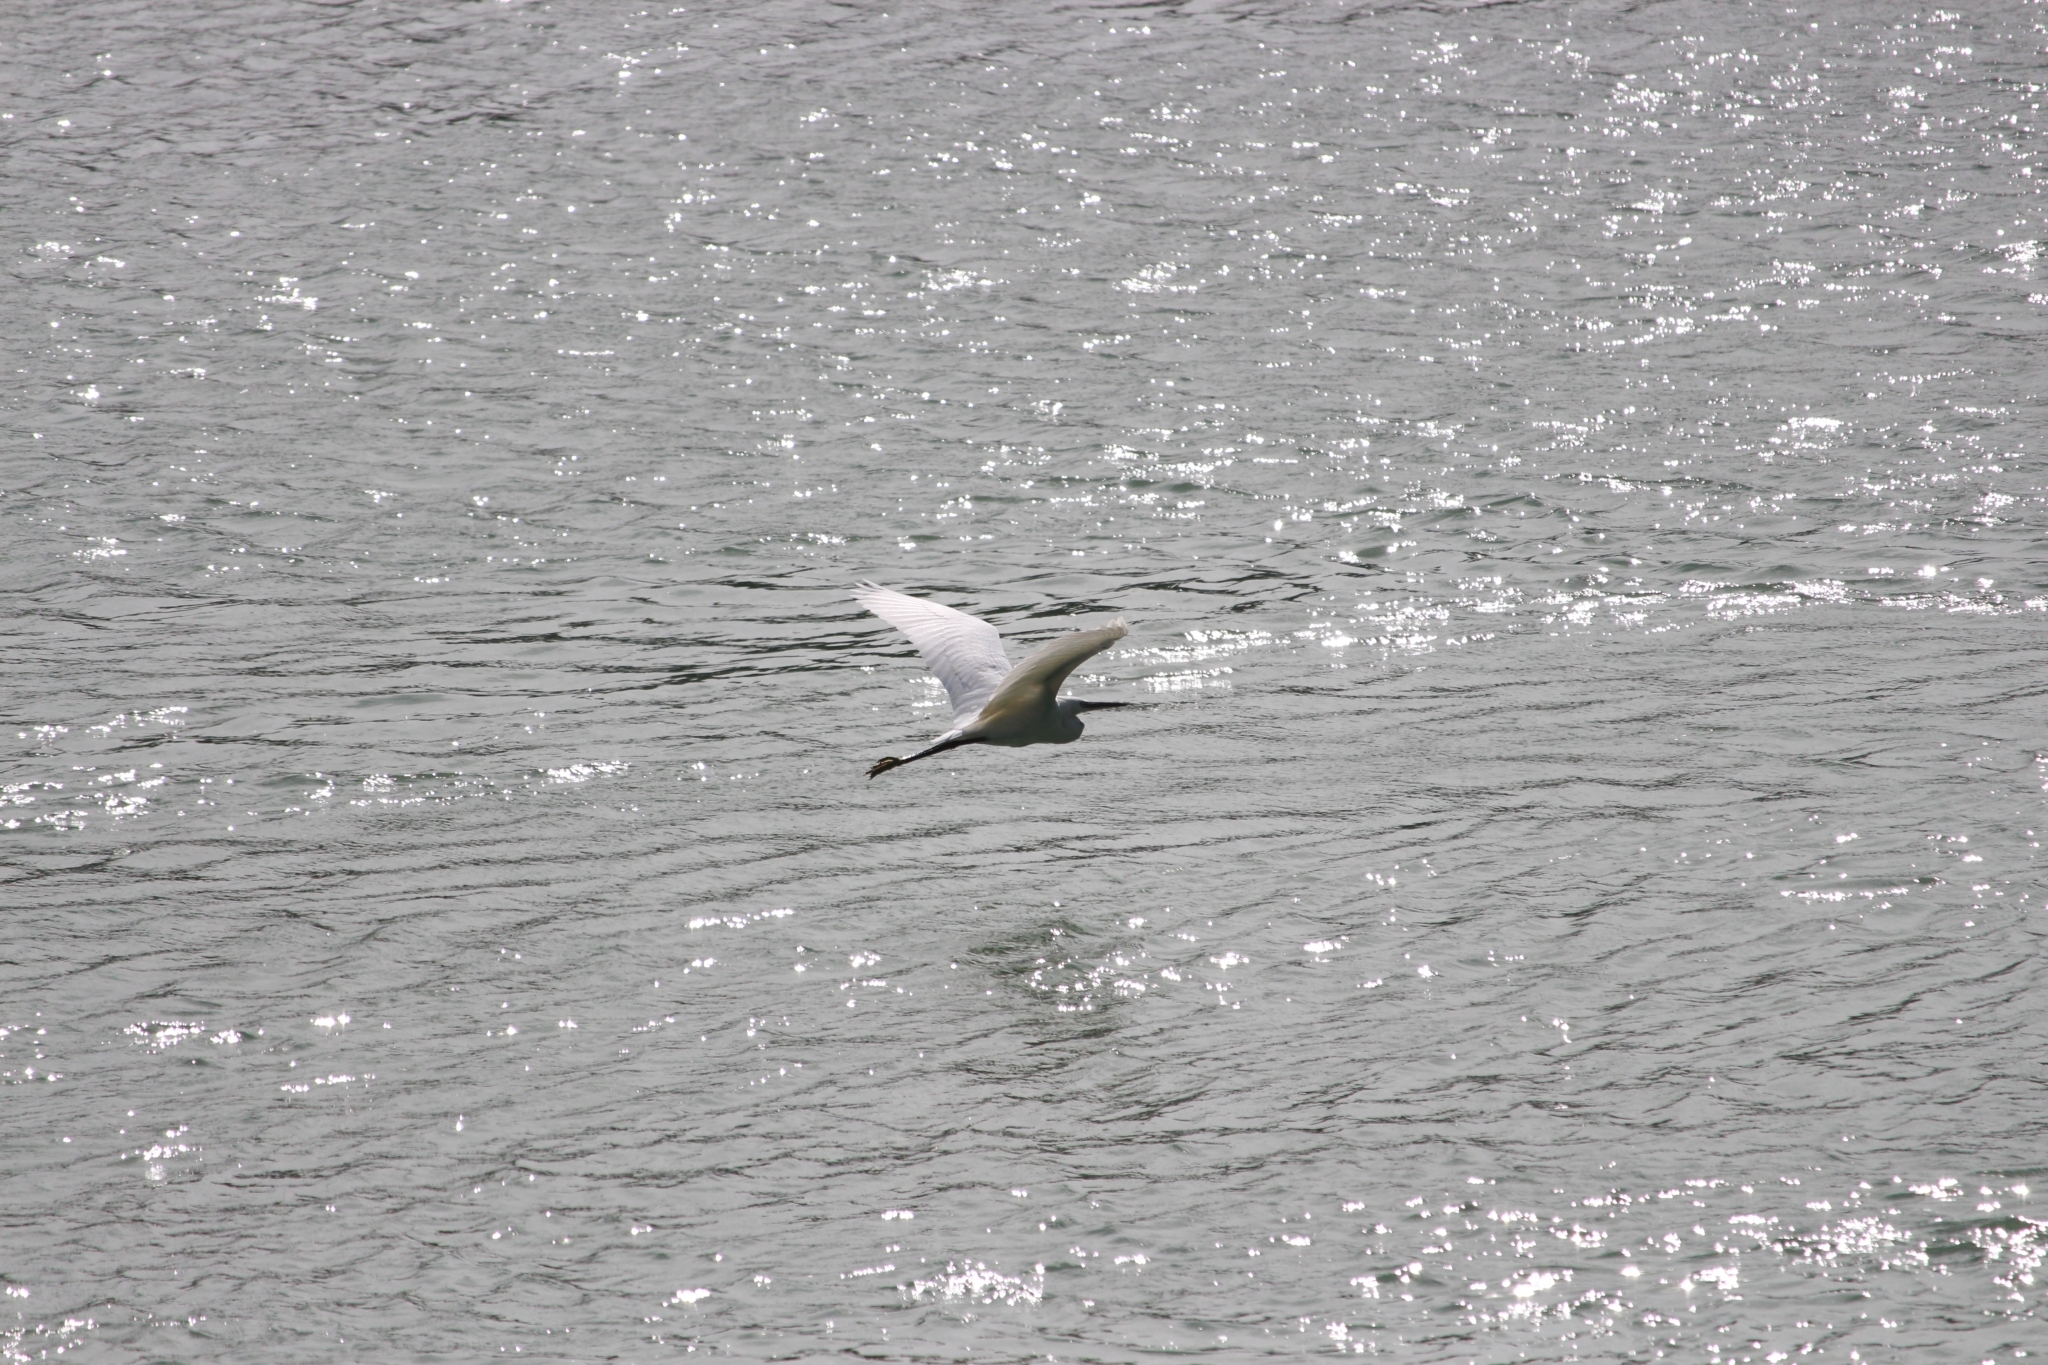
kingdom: Animalia
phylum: Chordata
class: Aves
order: Pelecaniformes
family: Ardeidae
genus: Egretta
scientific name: Egretta garzetta
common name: Little egret
